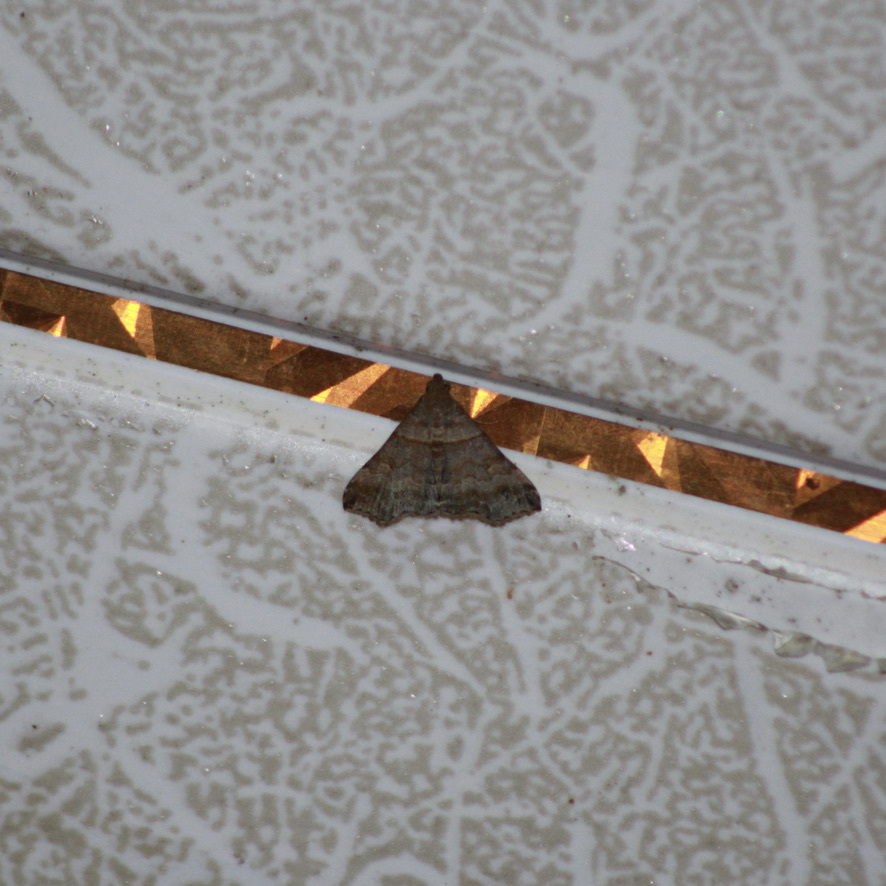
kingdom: Animalia
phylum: Arthropoda
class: Insecta
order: Lepidoptera
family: Erebidae
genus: Heterogramma
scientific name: Heterogramma circumflexalis
